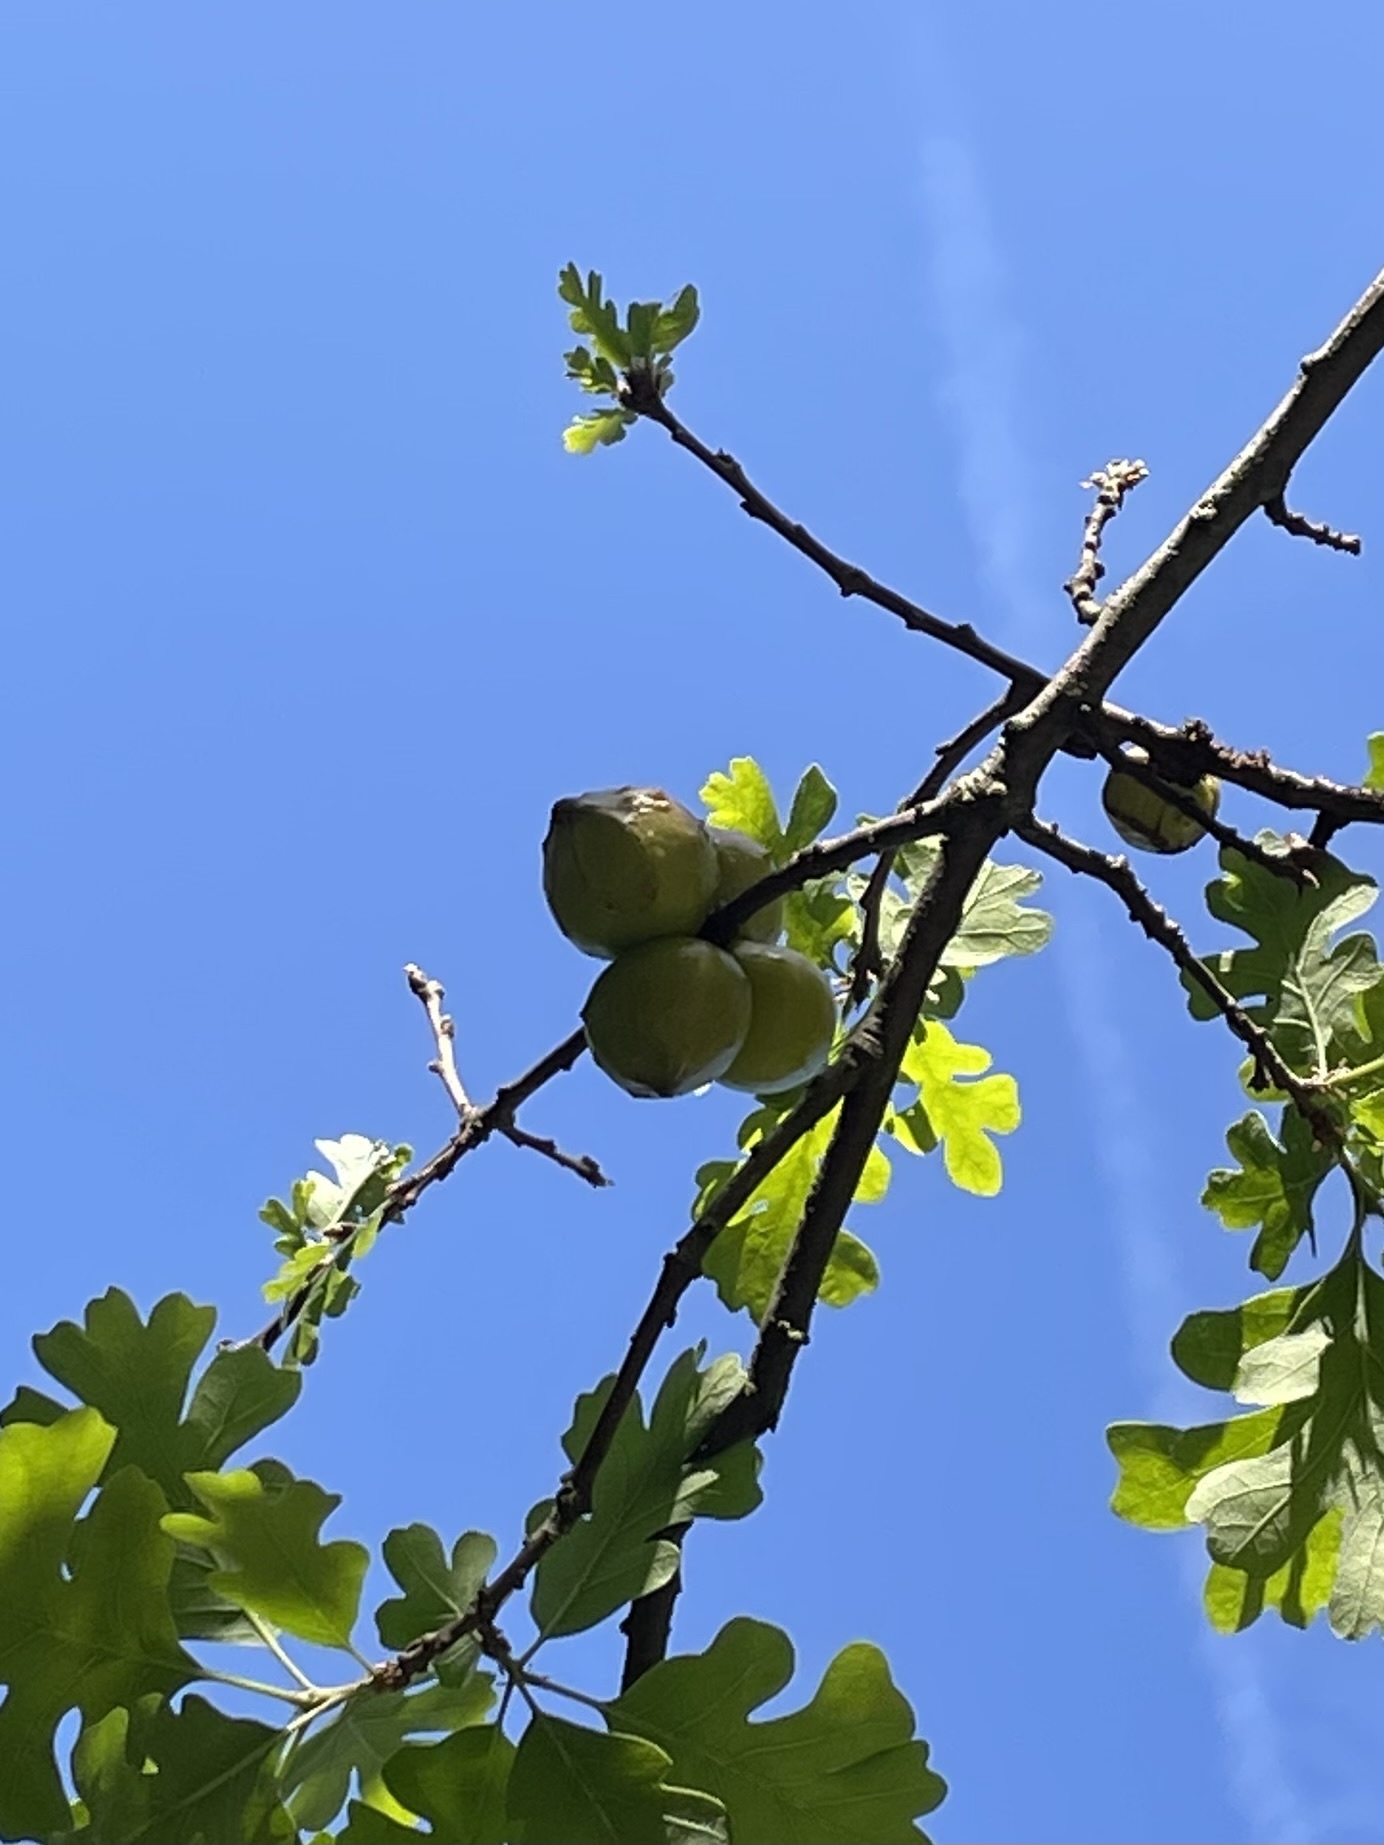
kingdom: Animalia
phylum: Arthropoda
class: Insecta
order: Hymenoptera
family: Cynipidae
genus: Andricus
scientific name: Andricus quercuscalifornicus
